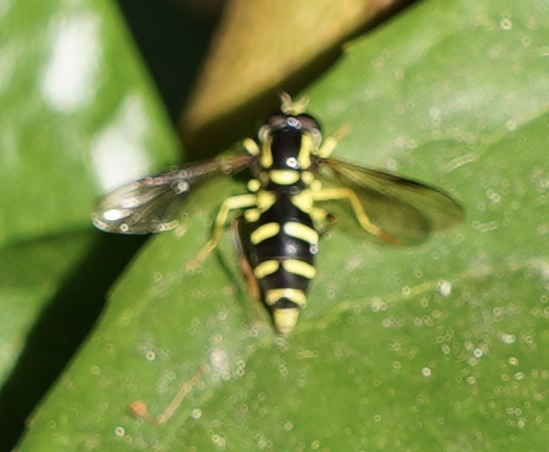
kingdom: Animalia
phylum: Arthropoda
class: Insecta
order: Diptera
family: Syrphidae
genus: Xanthogramma
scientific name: Xanthogramma
